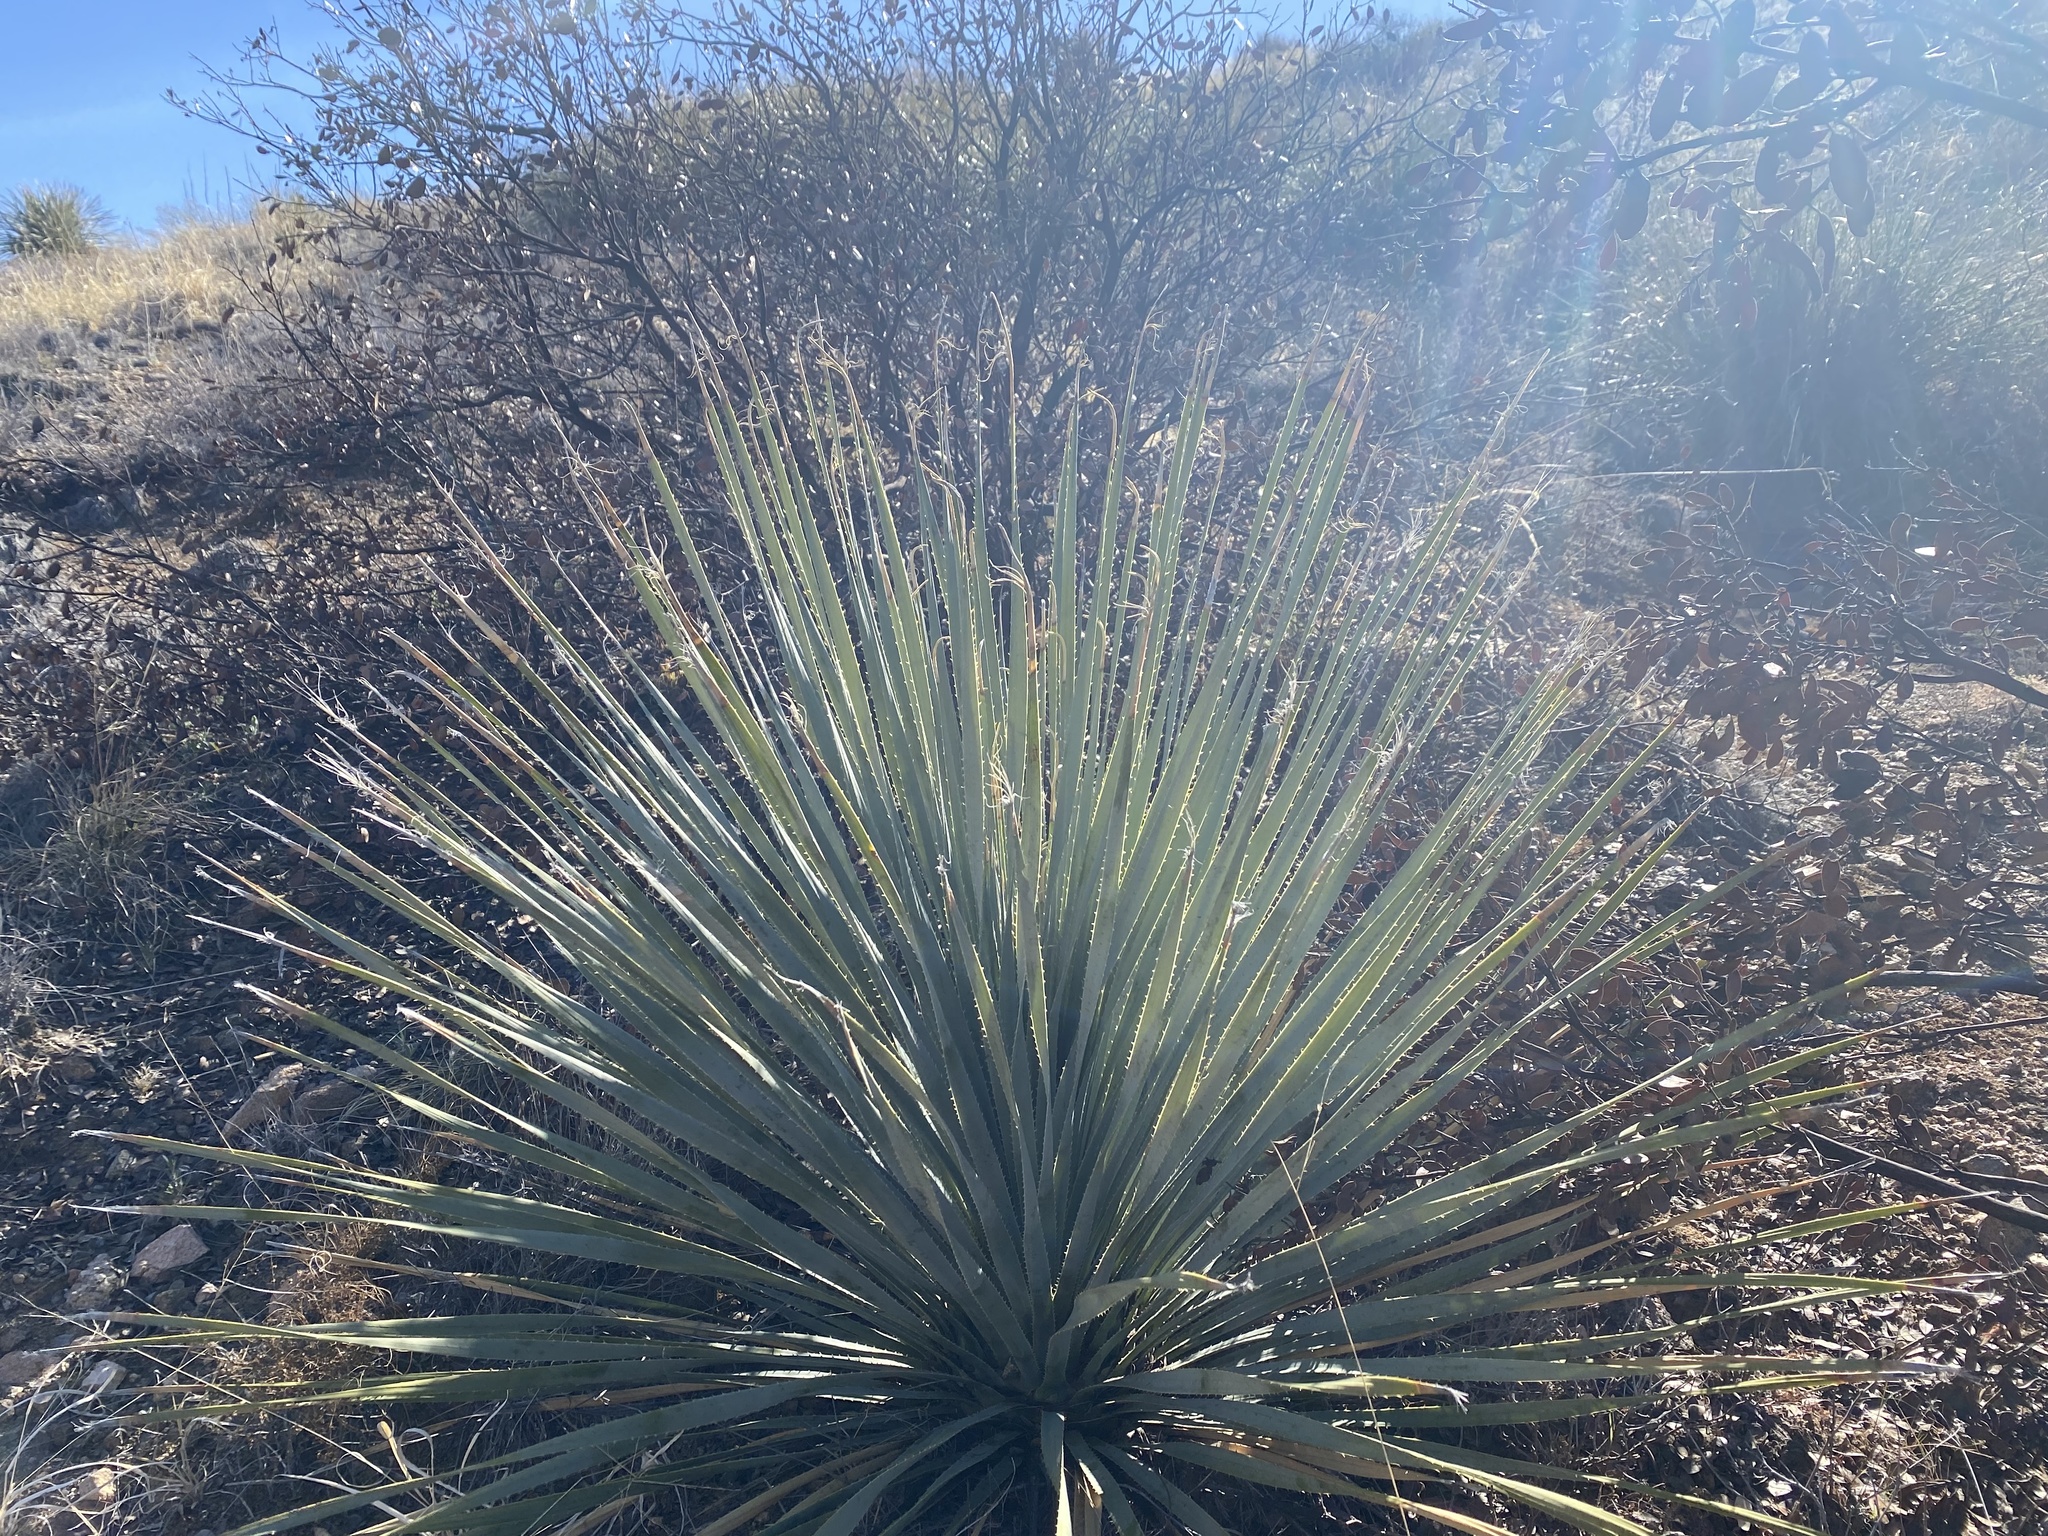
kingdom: Plantae
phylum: Tracheophyta
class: Liliopsida
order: Asparagales
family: Asparagaceae
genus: Dasylirion
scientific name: Dasylirion wheeleri
